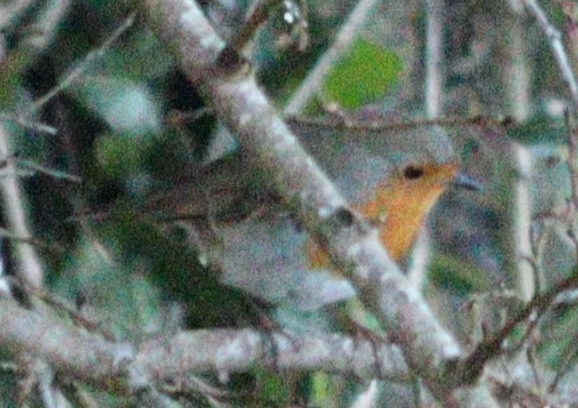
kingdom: Animalia
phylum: Chordata
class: Aves
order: Passeriformes
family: Muscicapidae
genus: Erithacus
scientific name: Erithacus rubecula
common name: European robin
